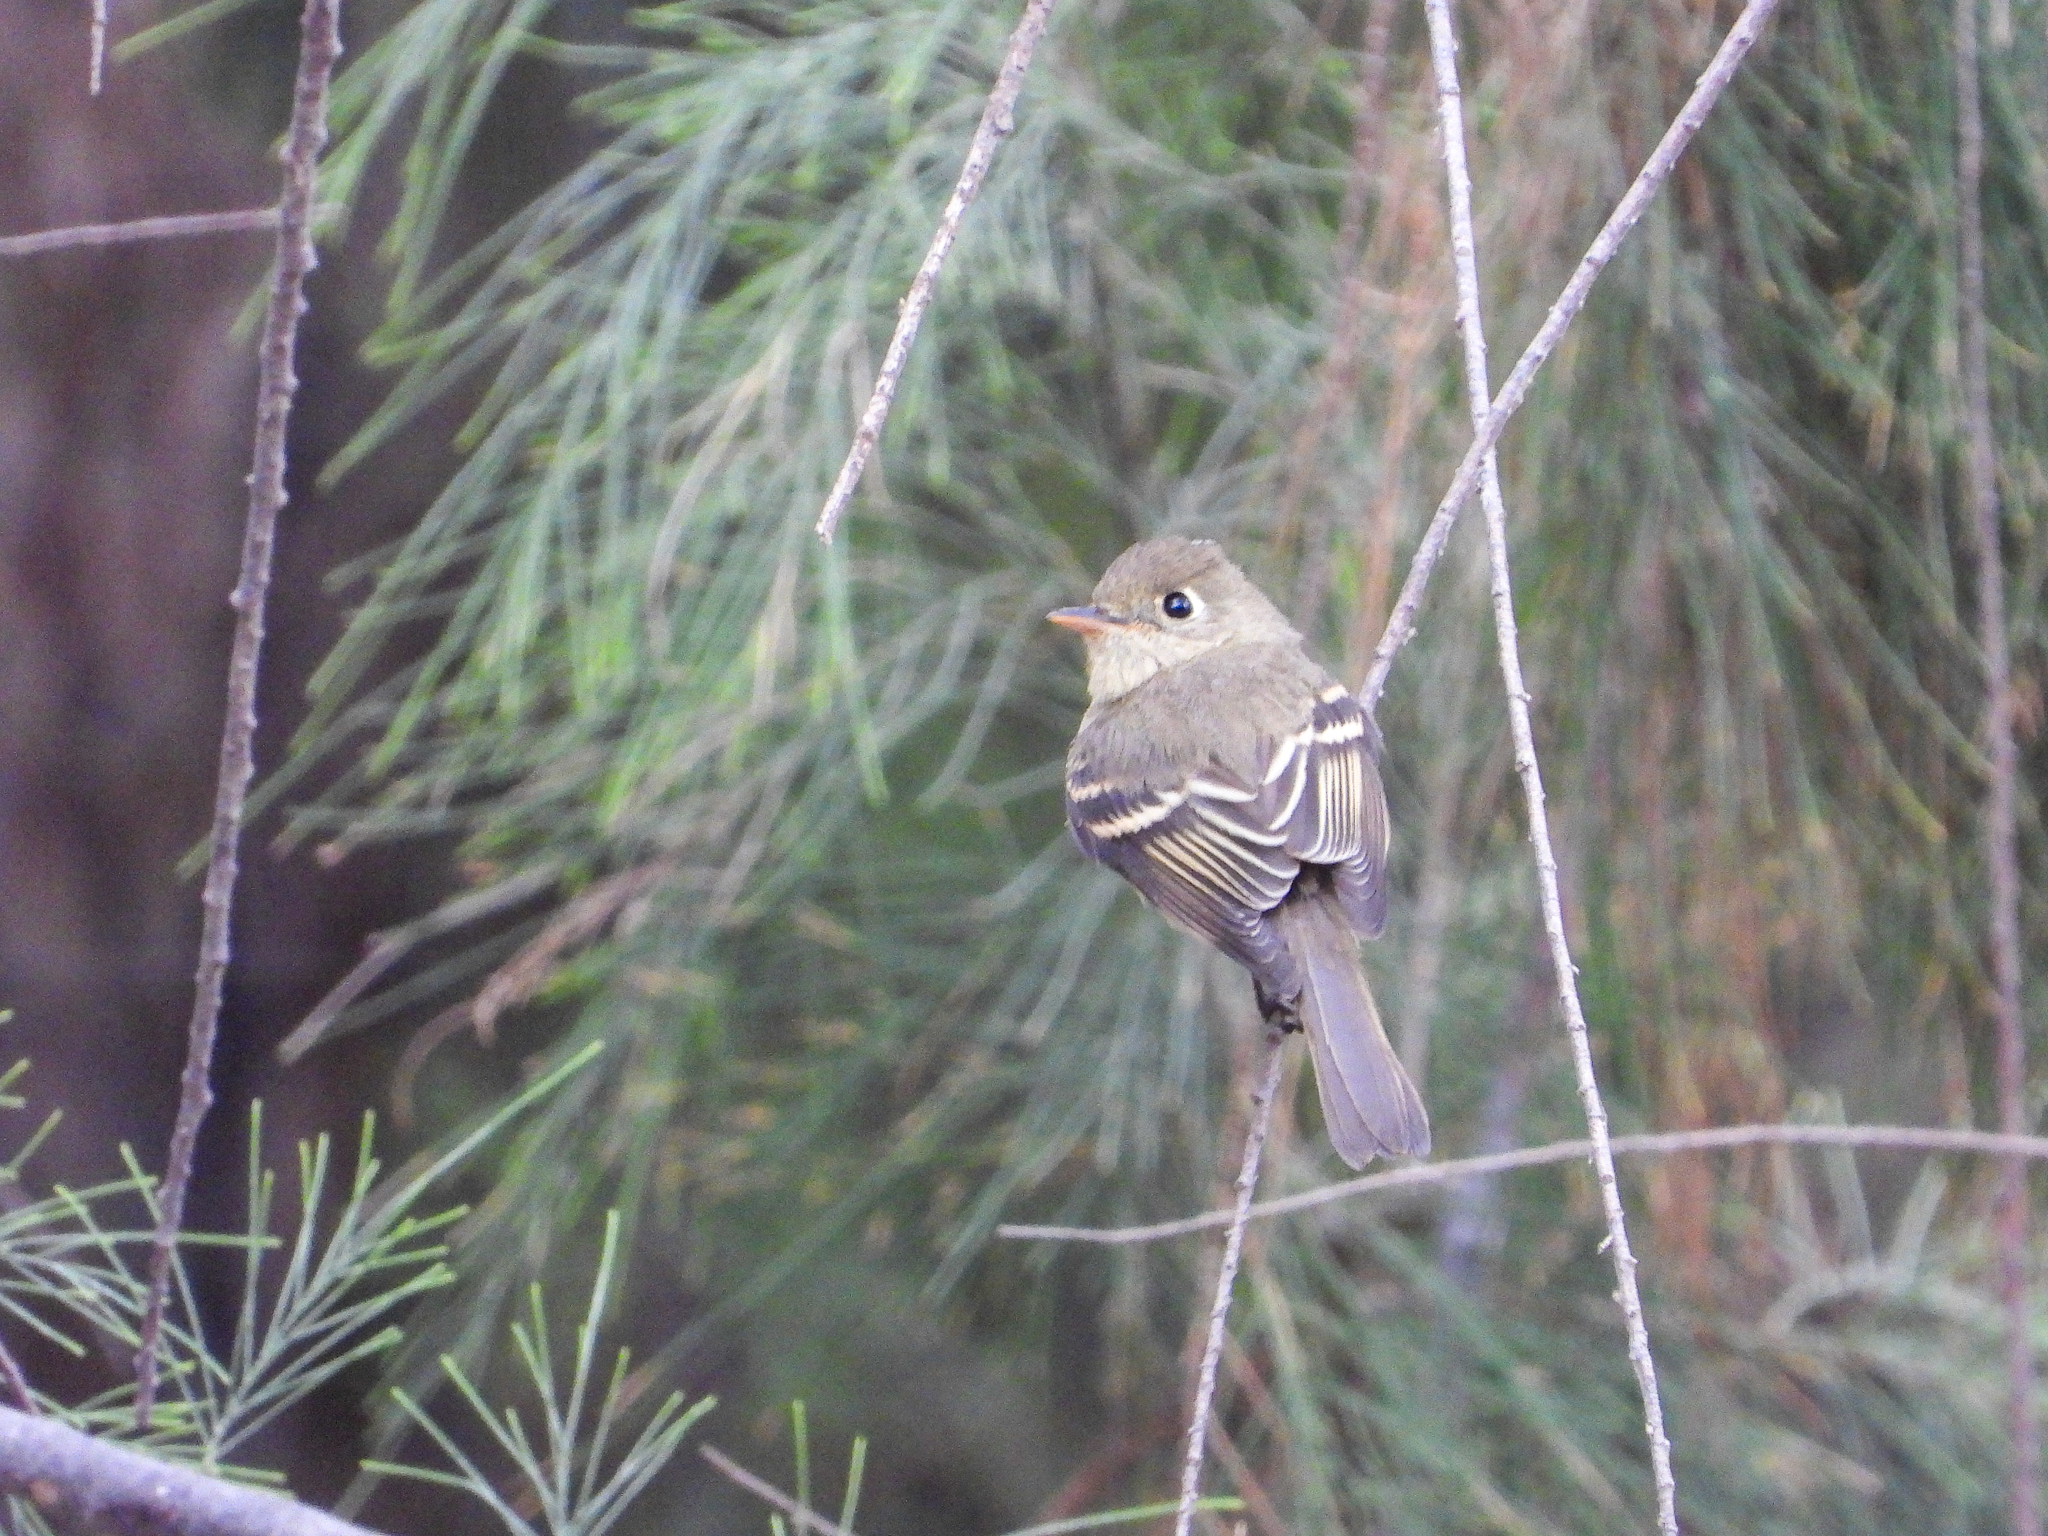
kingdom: Animalia
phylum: Chordata
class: Aves
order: Passeriformes
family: Tyrannidae
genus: Empidonax
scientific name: Empidonax difficilis
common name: Pacific-slope flycatcher
